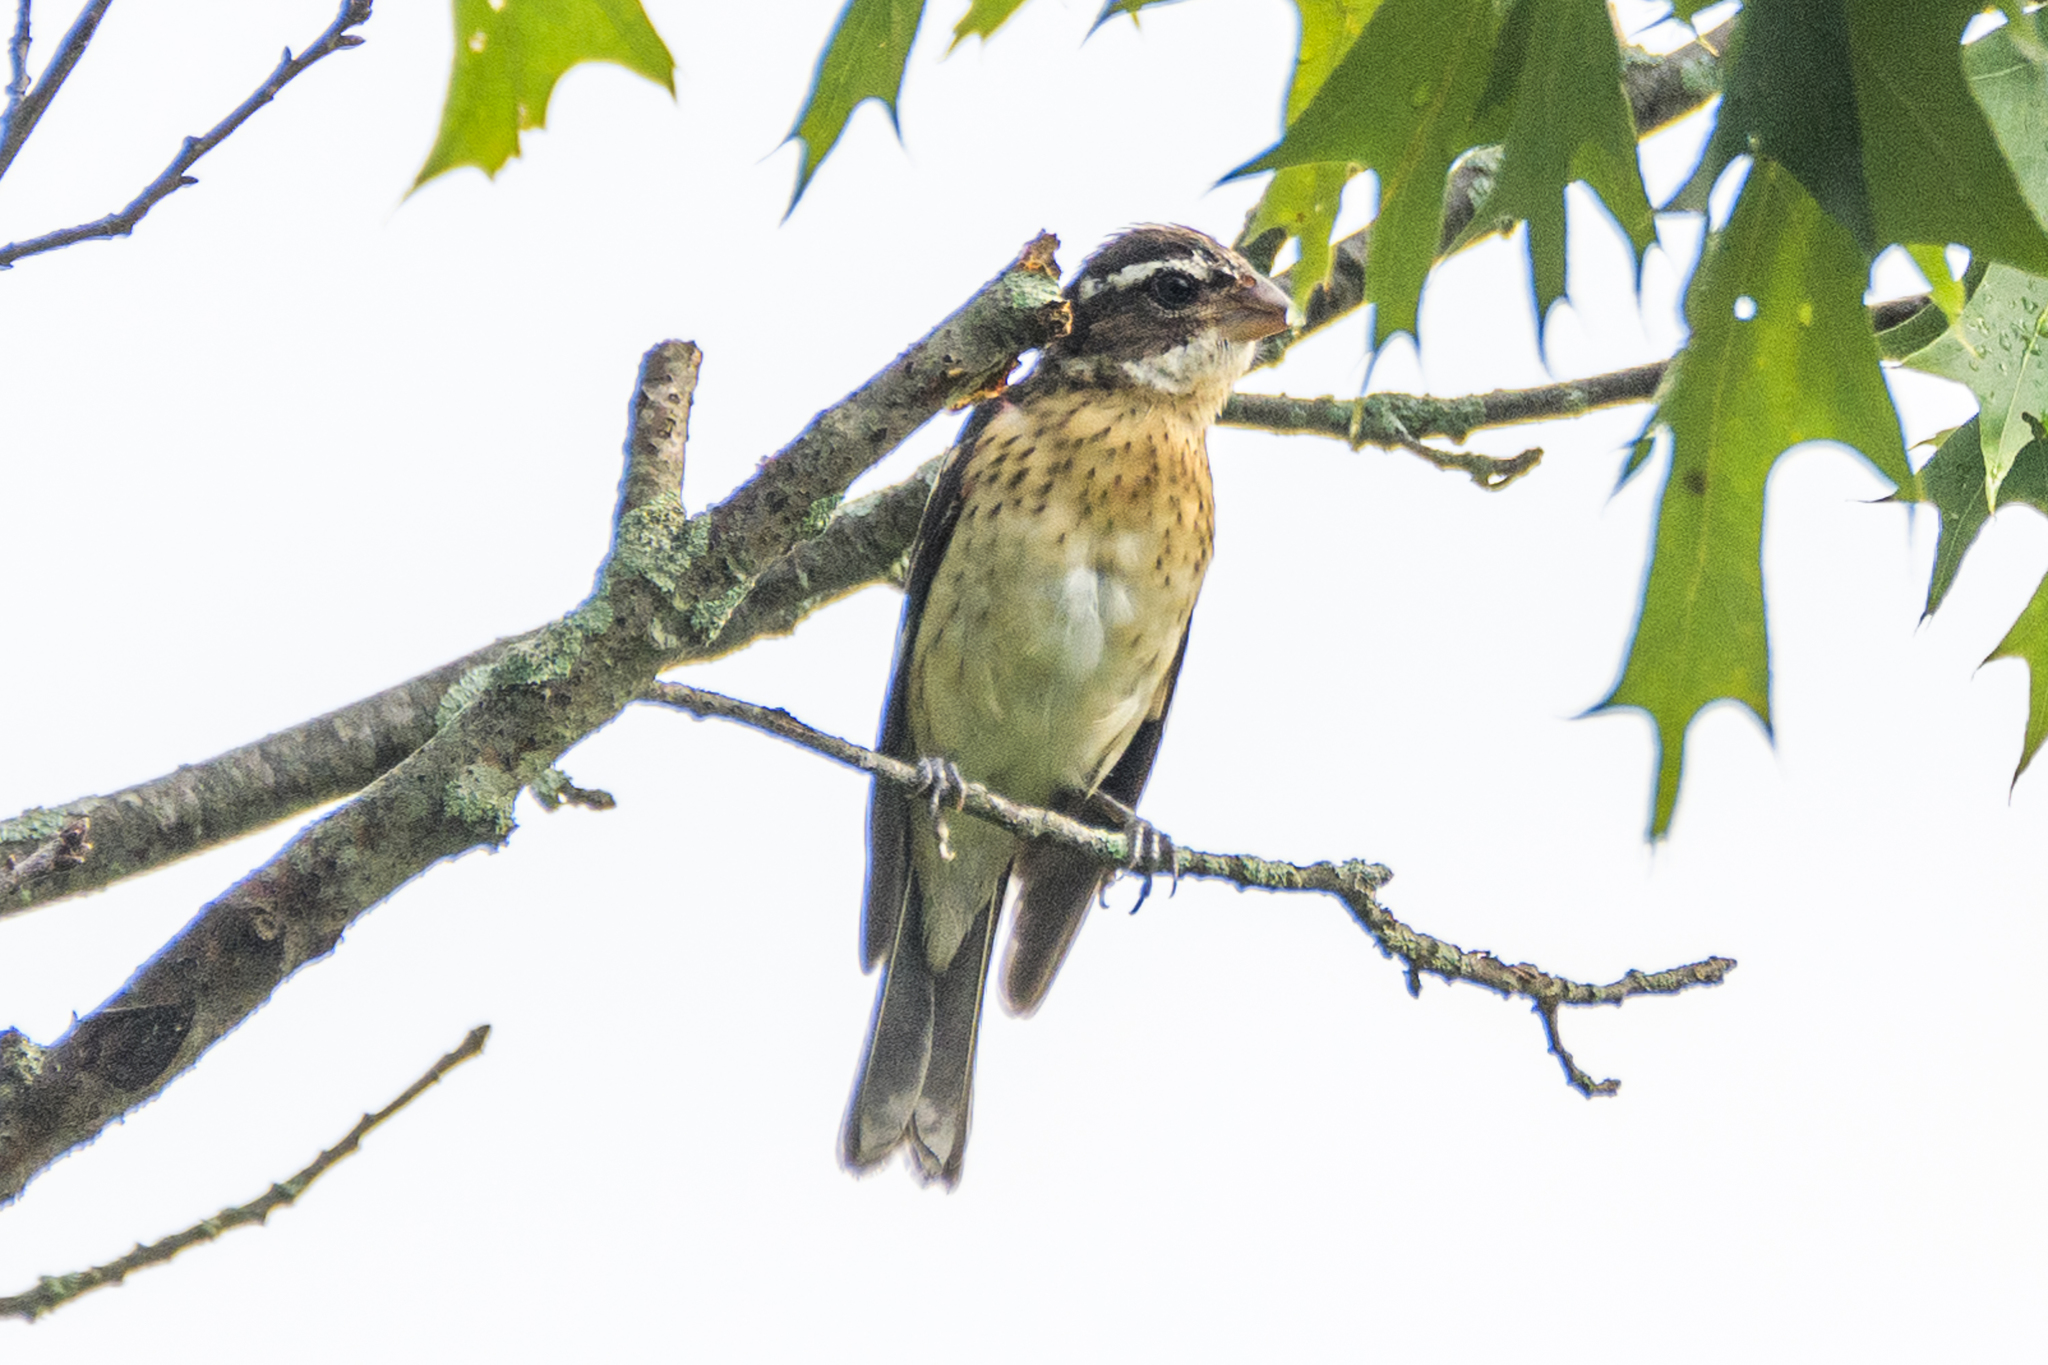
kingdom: Animalia
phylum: Chordata
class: Aves
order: Passeriformes
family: Cardinalidae
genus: Pheucticus
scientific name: Pheucticus ludovicianus
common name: Rose-breasted grosbeak
